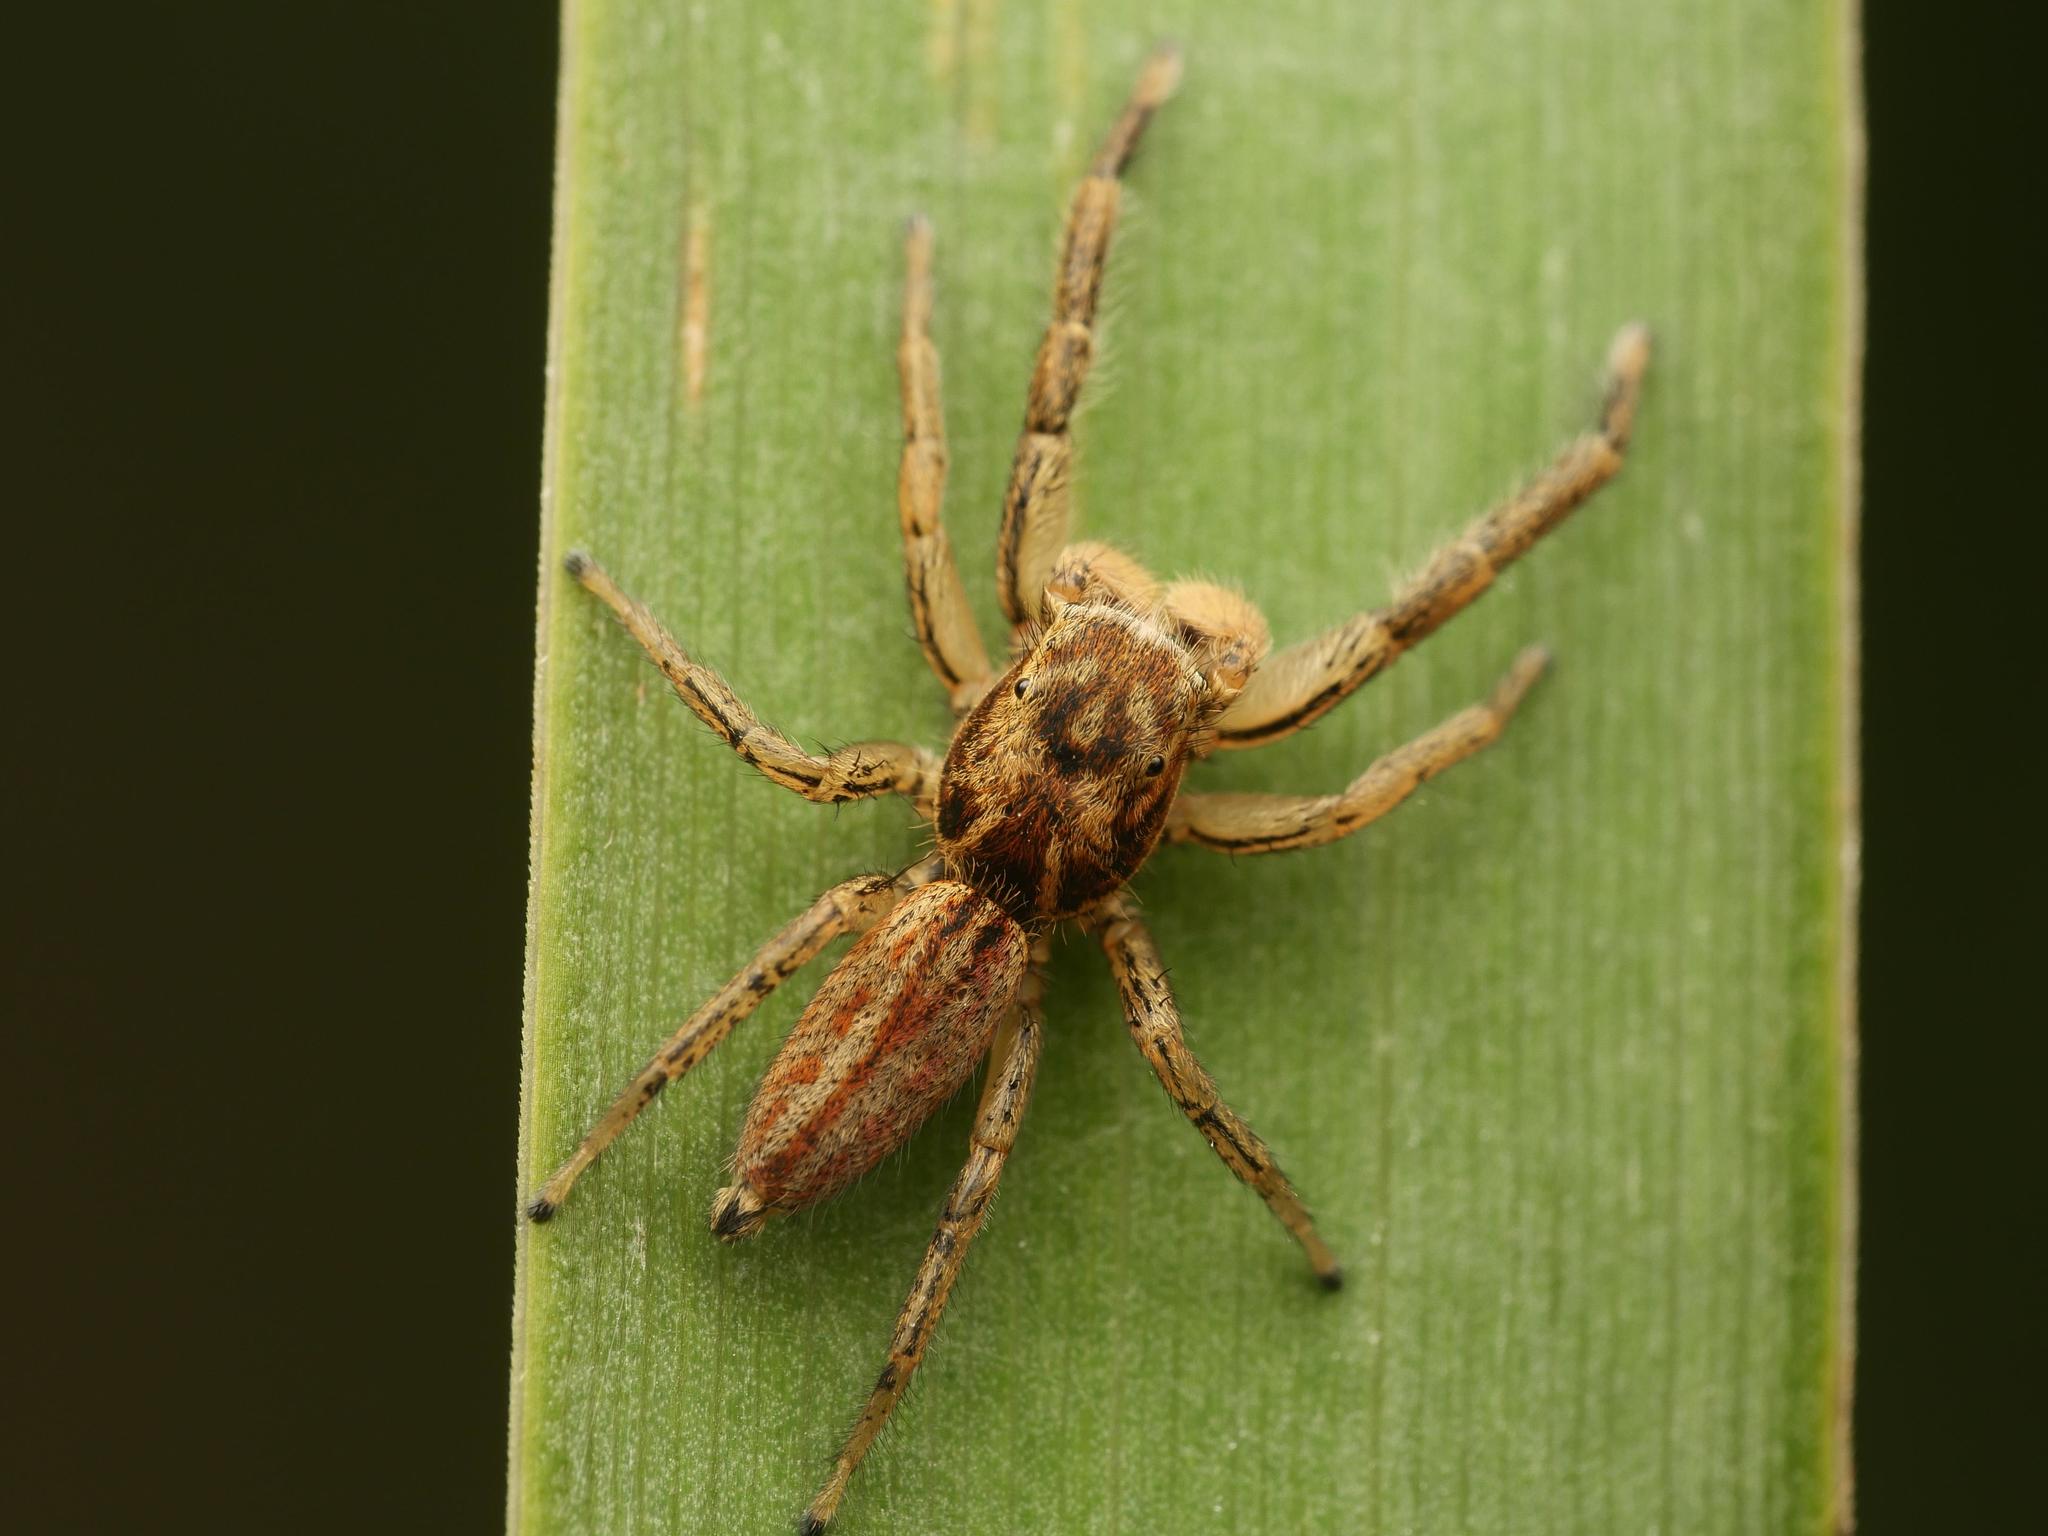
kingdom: Animalia
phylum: Arthropoda
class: Arachnida
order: Araneae
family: Salticidae
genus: Marpissa
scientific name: Marpissa radiata
